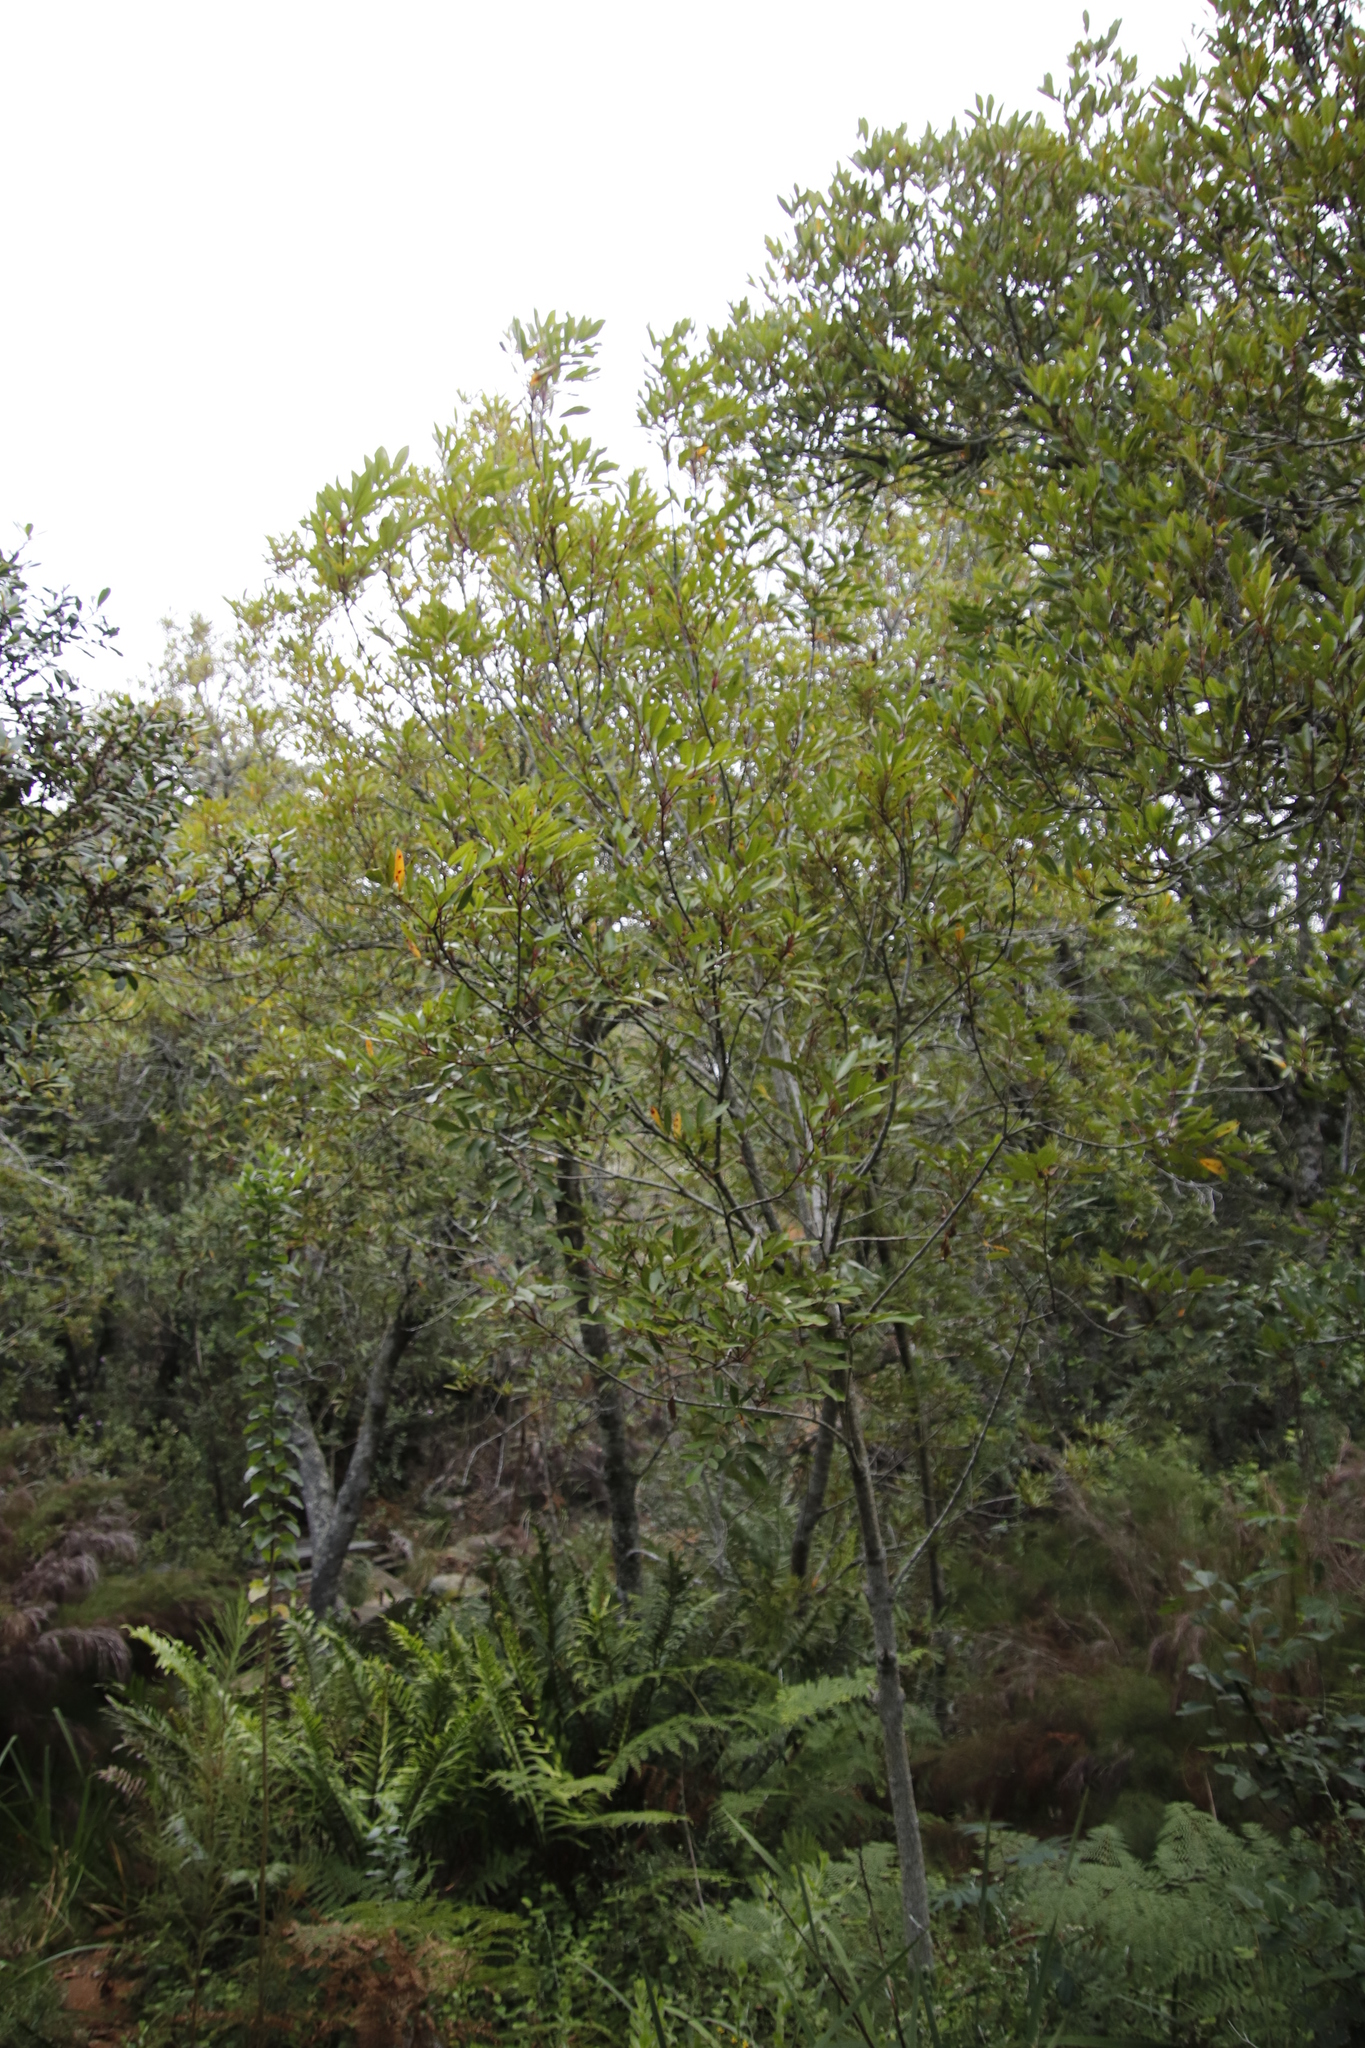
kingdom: Plantae
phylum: Tracheophyta
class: Magnoliopsida
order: Oxalidales
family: Cunoniaceae
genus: Cunonia
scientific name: Cunonia capensis
